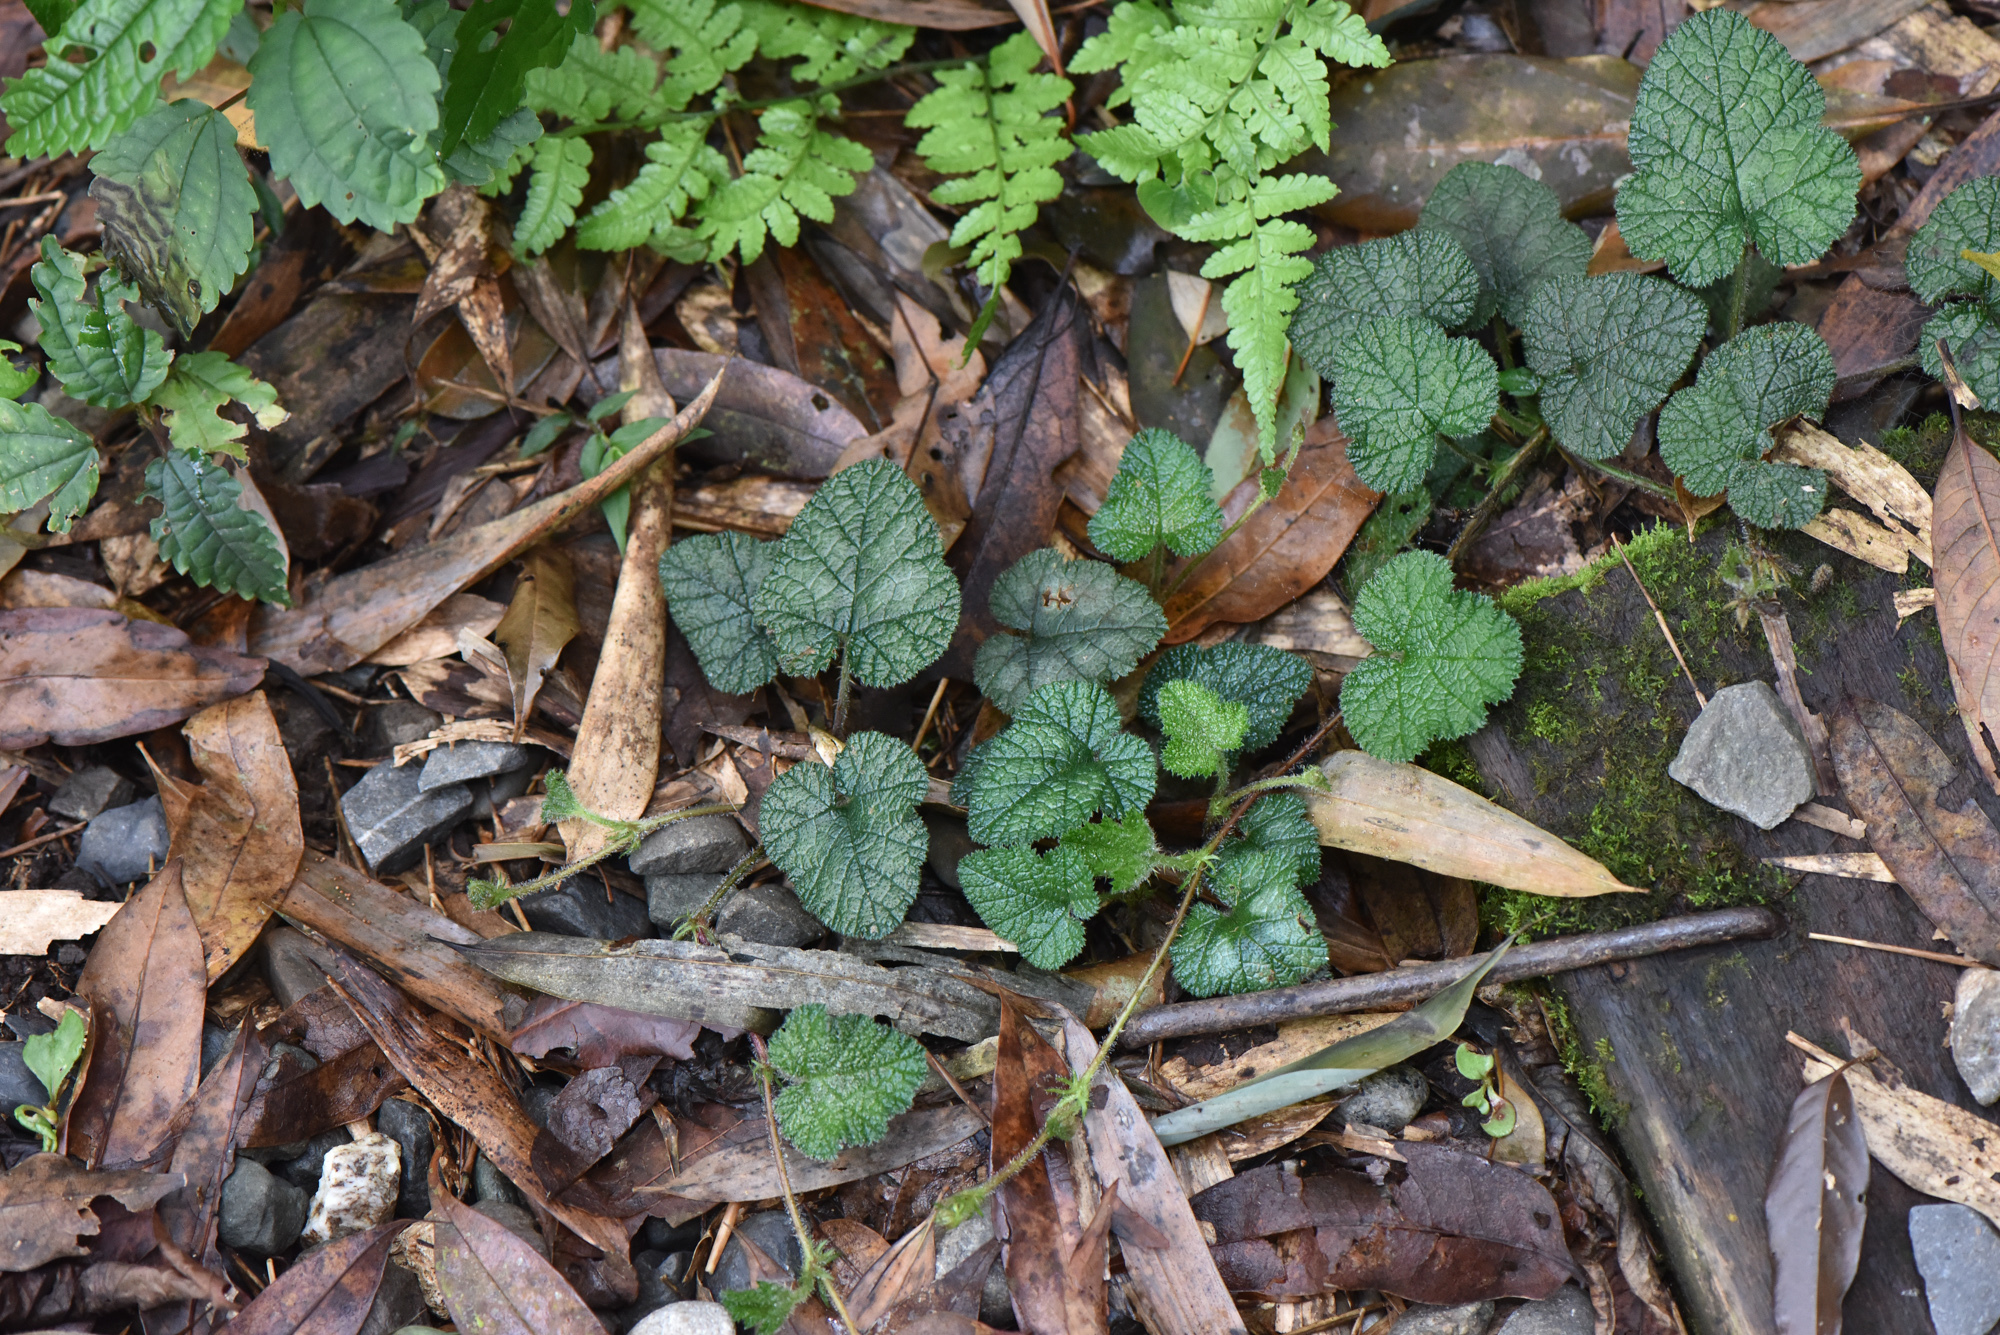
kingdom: Plantae
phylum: Tracheophyta
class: Magnoliopsida
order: Rosales
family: Rosaceae
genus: Rubus
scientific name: Rubus pectinellus
